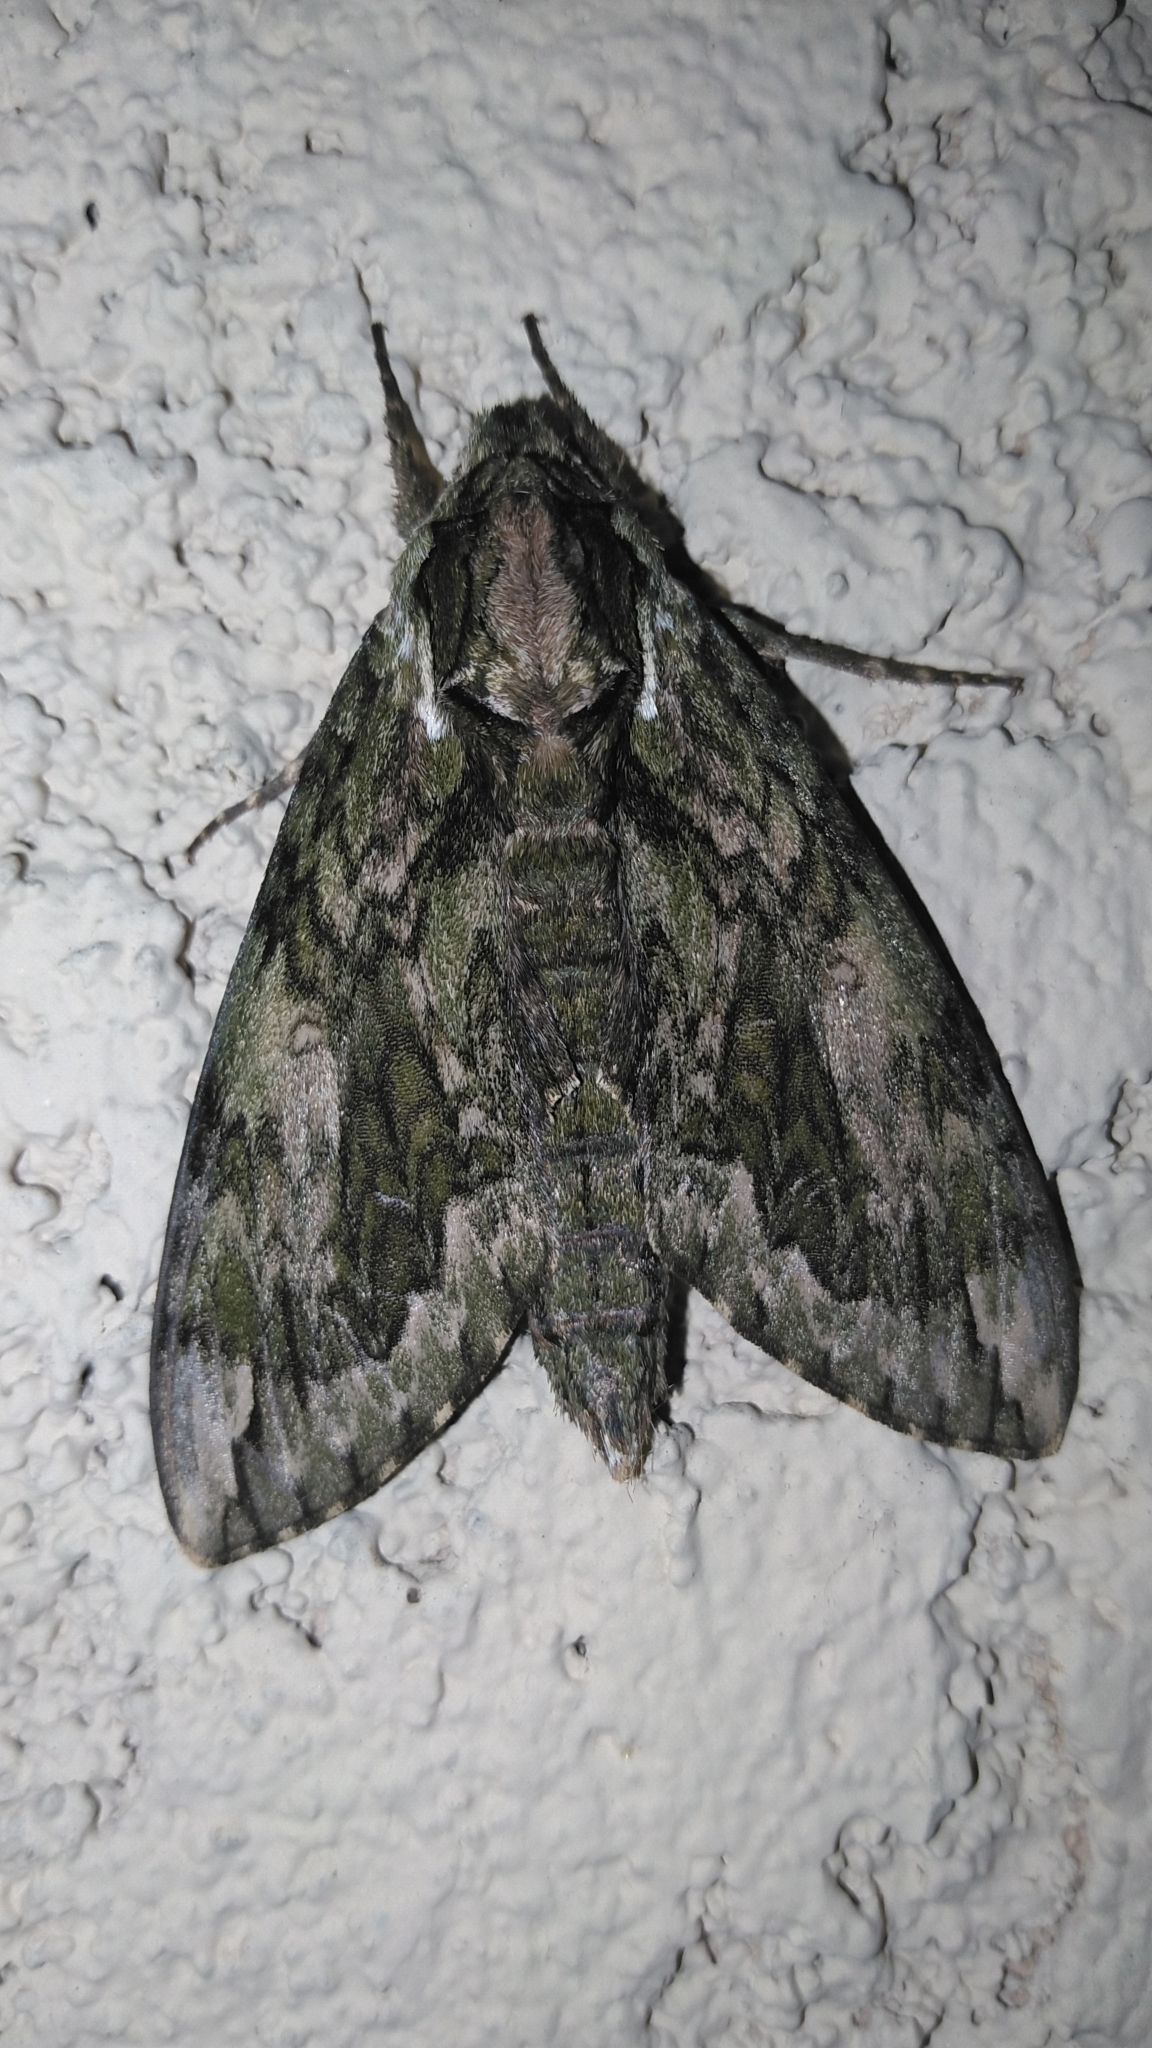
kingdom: Animalia
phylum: Arthropoda
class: Insecta
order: Lepidoptera
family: Sphingidae
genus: Ceratomia
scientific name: Ceratomia hageni
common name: Hagen's sphinx
